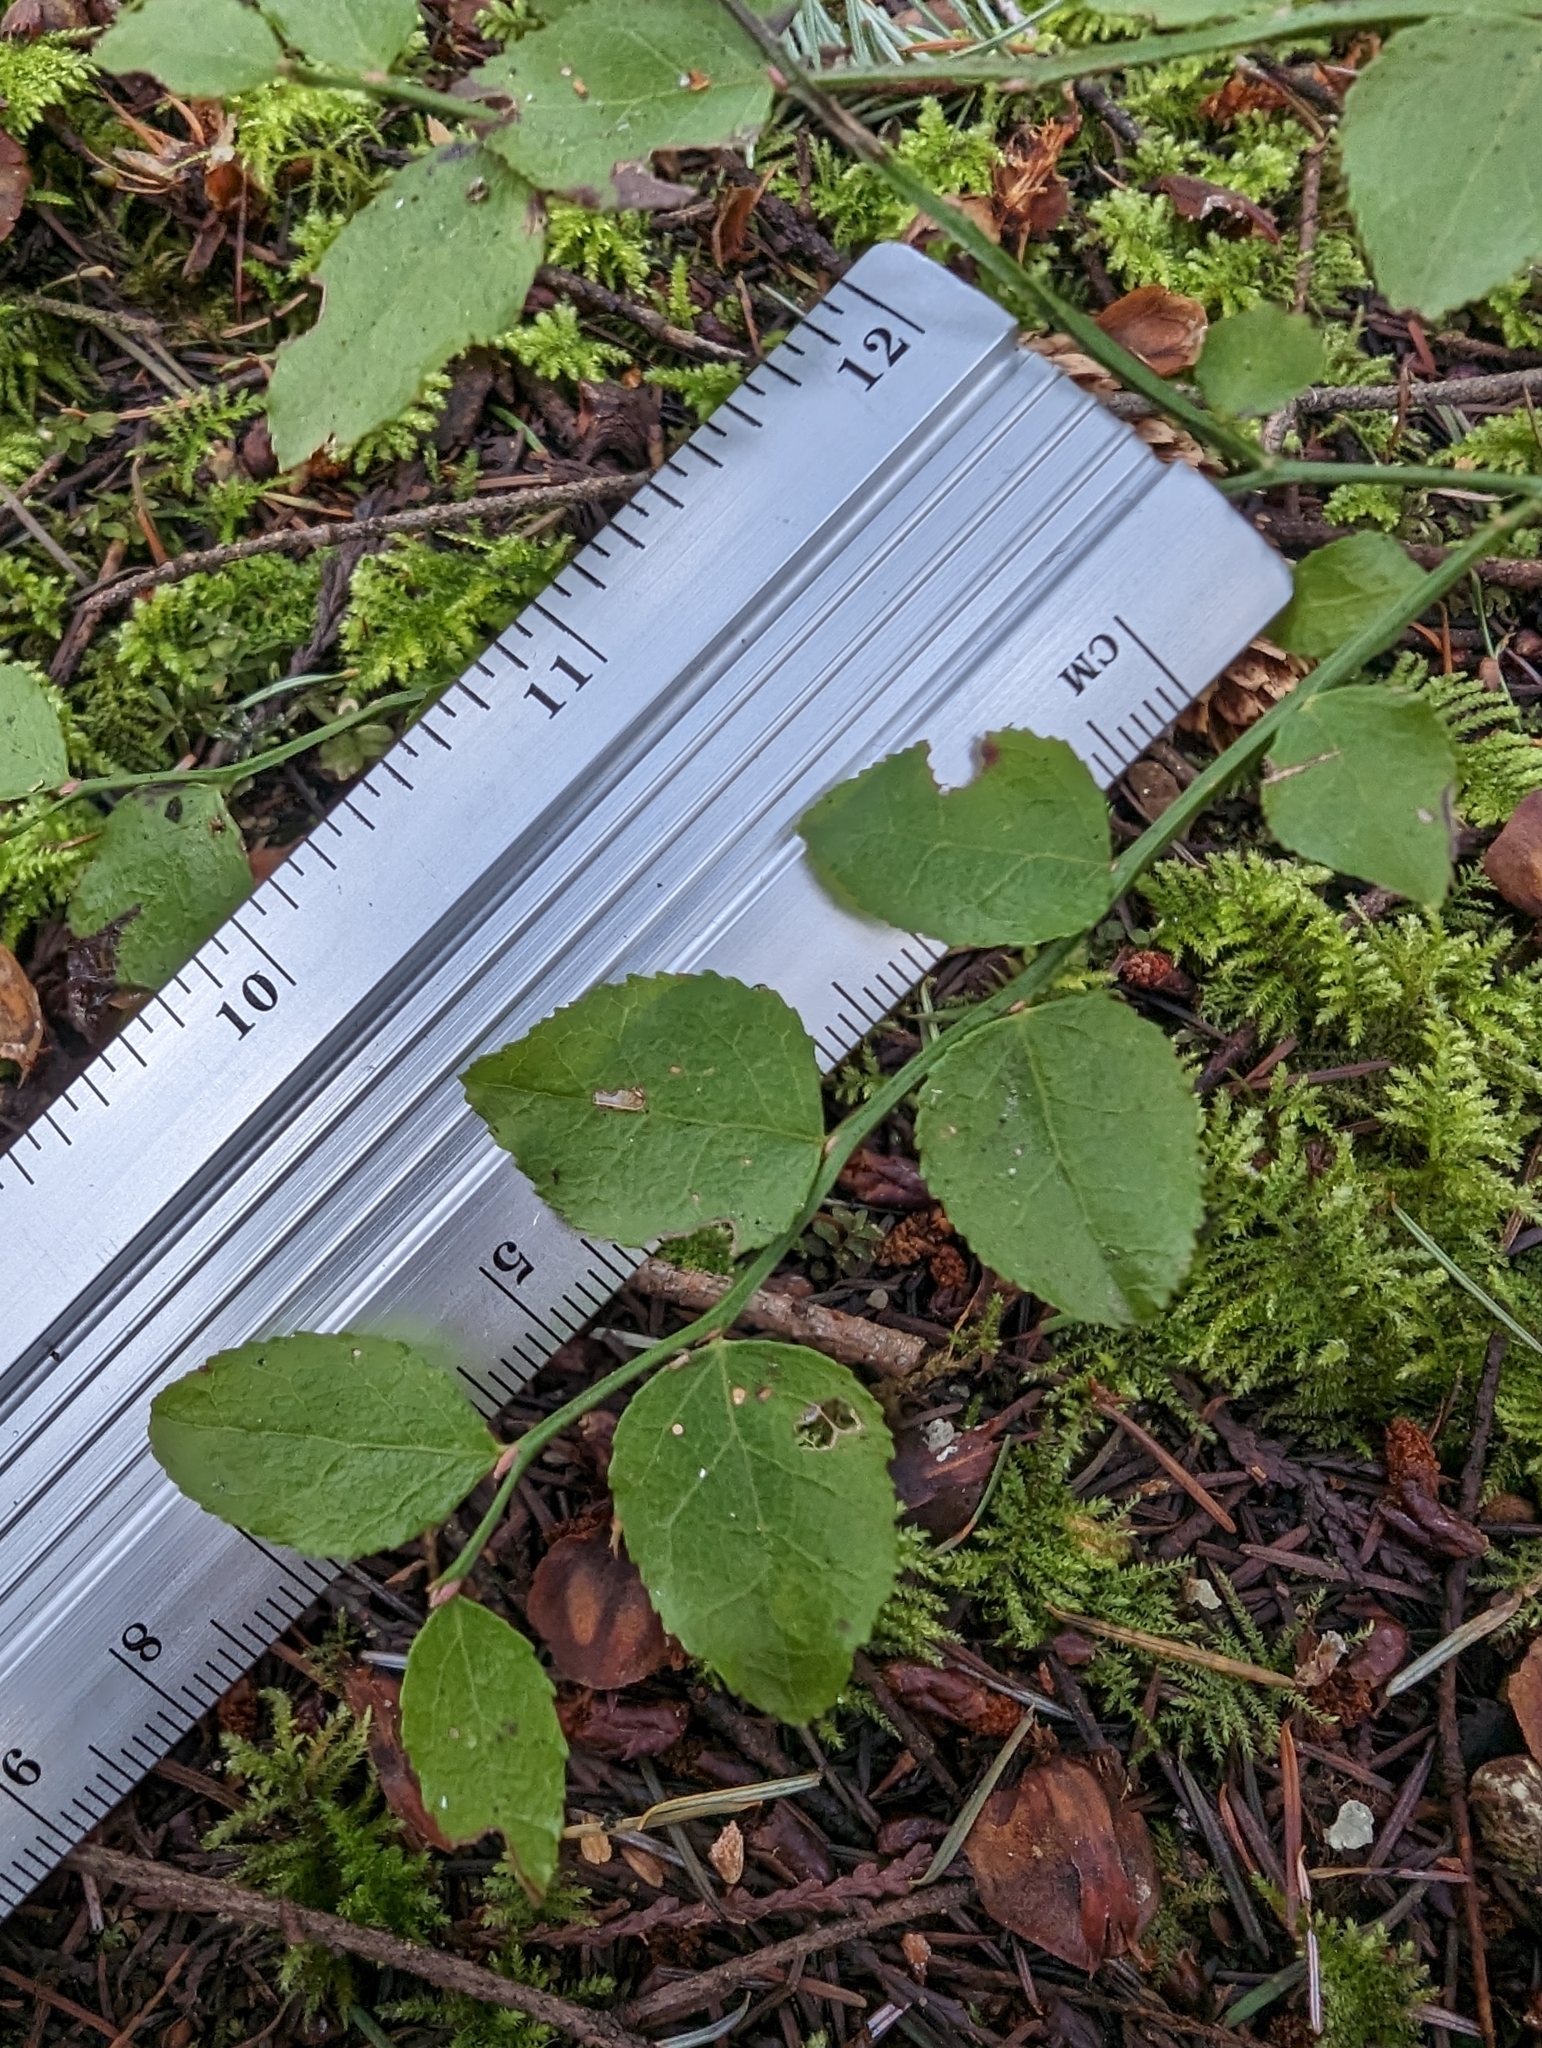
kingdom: Plantae
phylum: Tracheophyta
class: Magnoliopsida
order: Ericales
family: Ericaceae
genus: Vaccinium
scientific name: Vaccinium parvifolium
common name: Red-huckleberry
